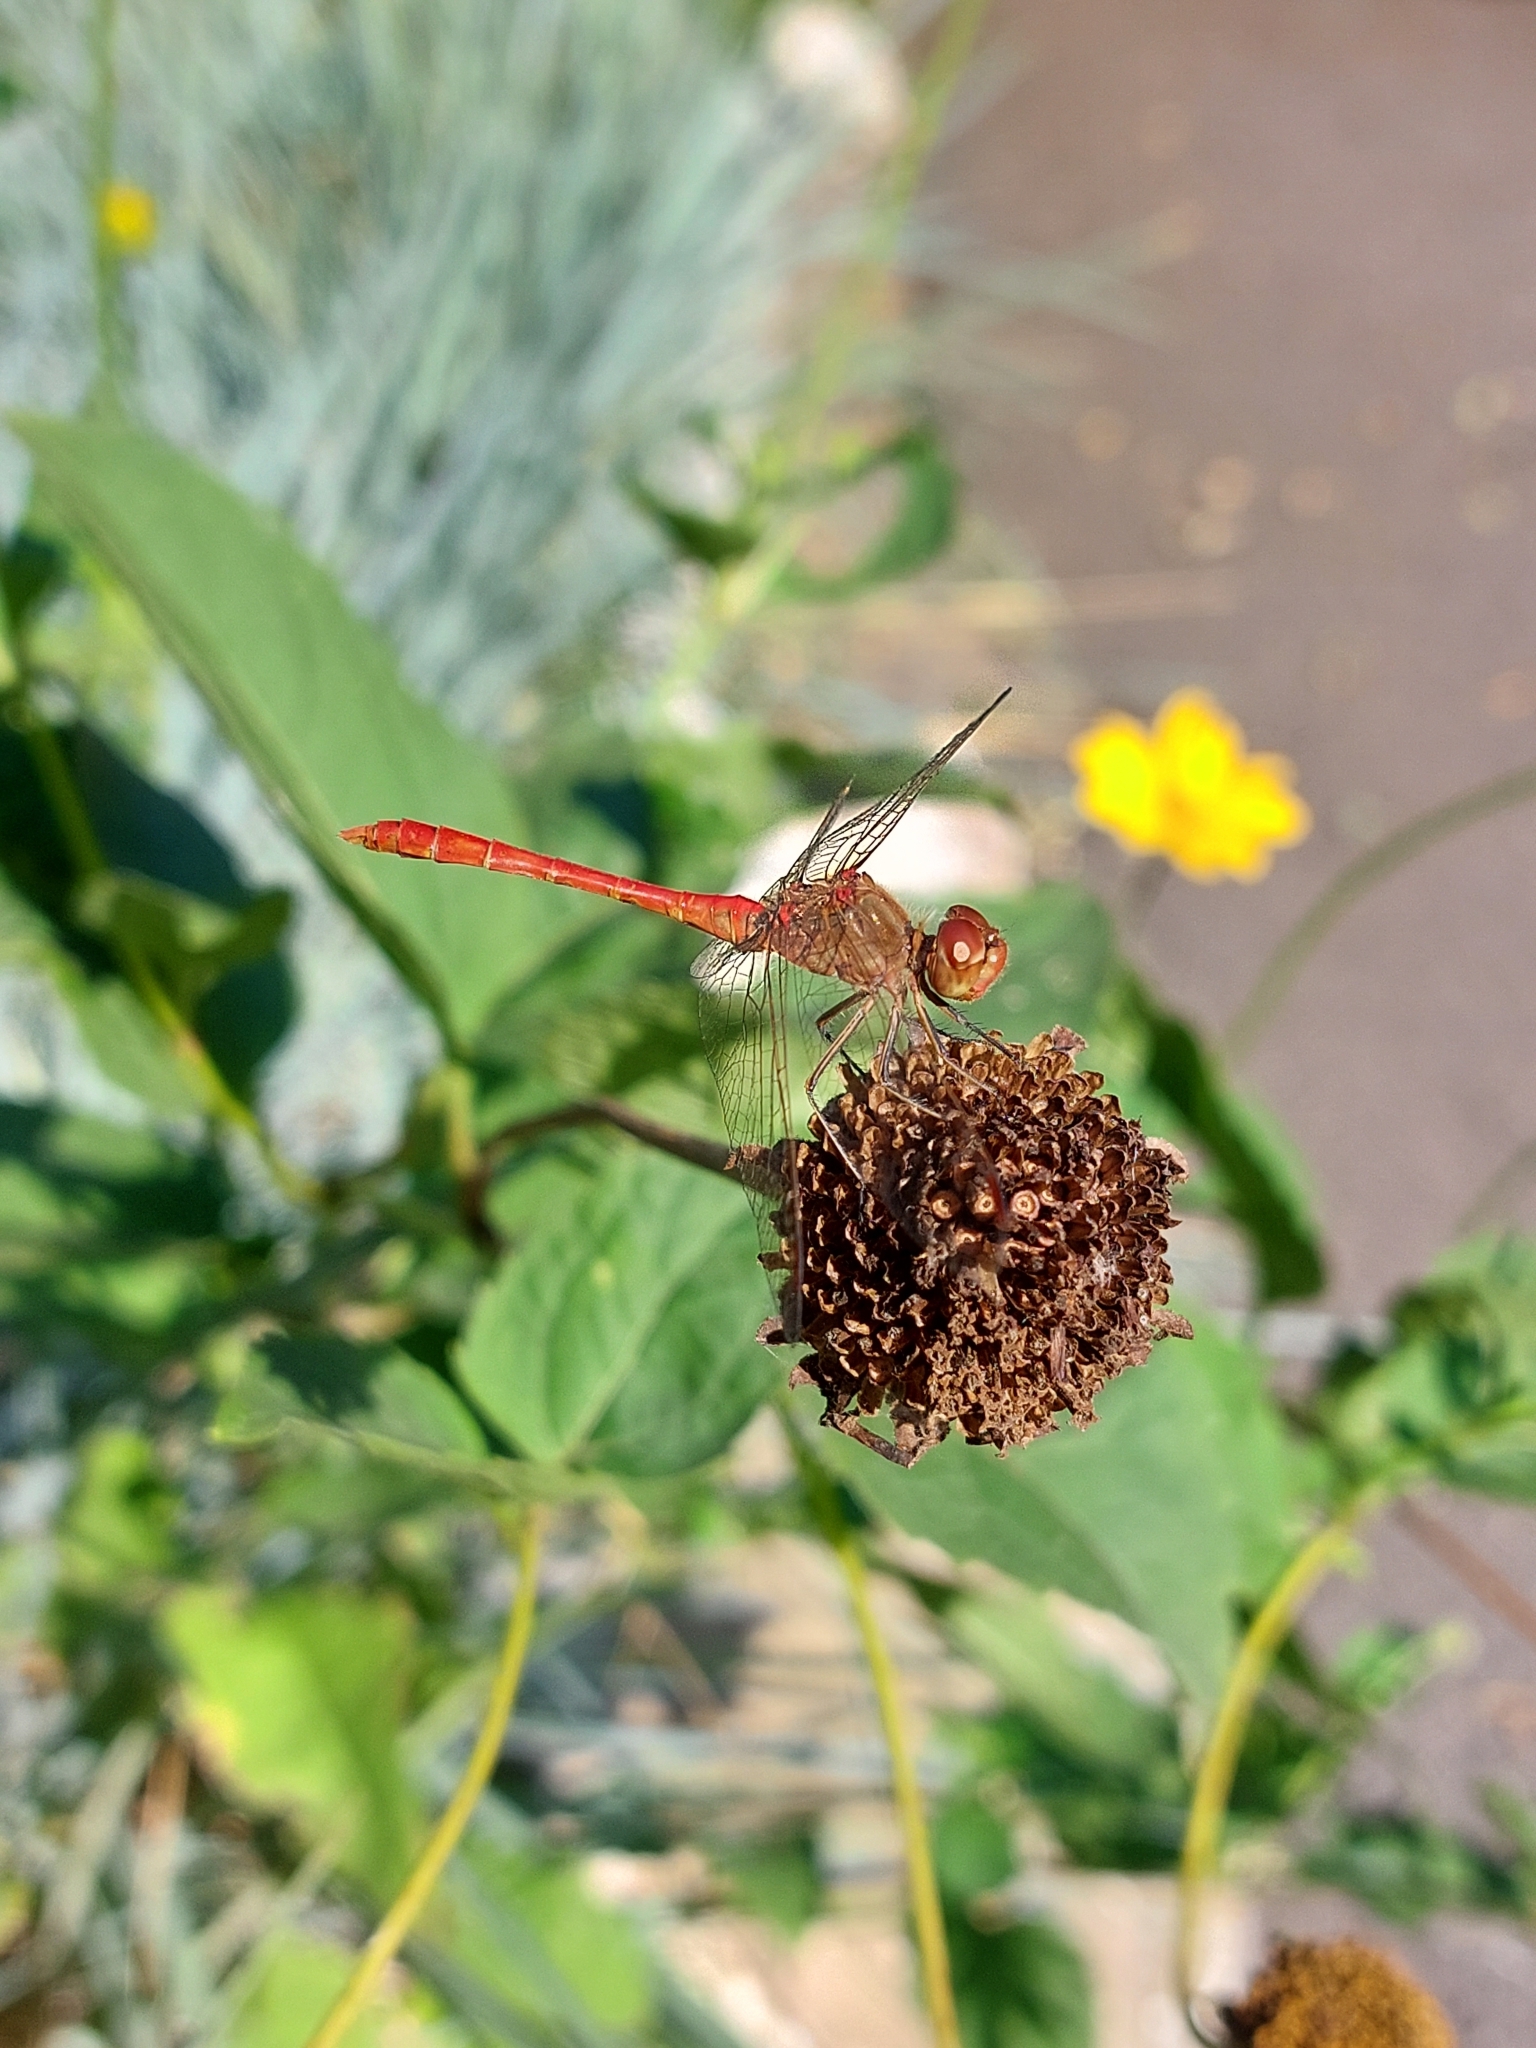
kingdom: Animalia
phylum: Arthropoda
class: Insecta
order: Odonata
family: Libellulidae
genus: Sympetrum
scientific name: Sympetrum meridionale
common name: Southern darter
